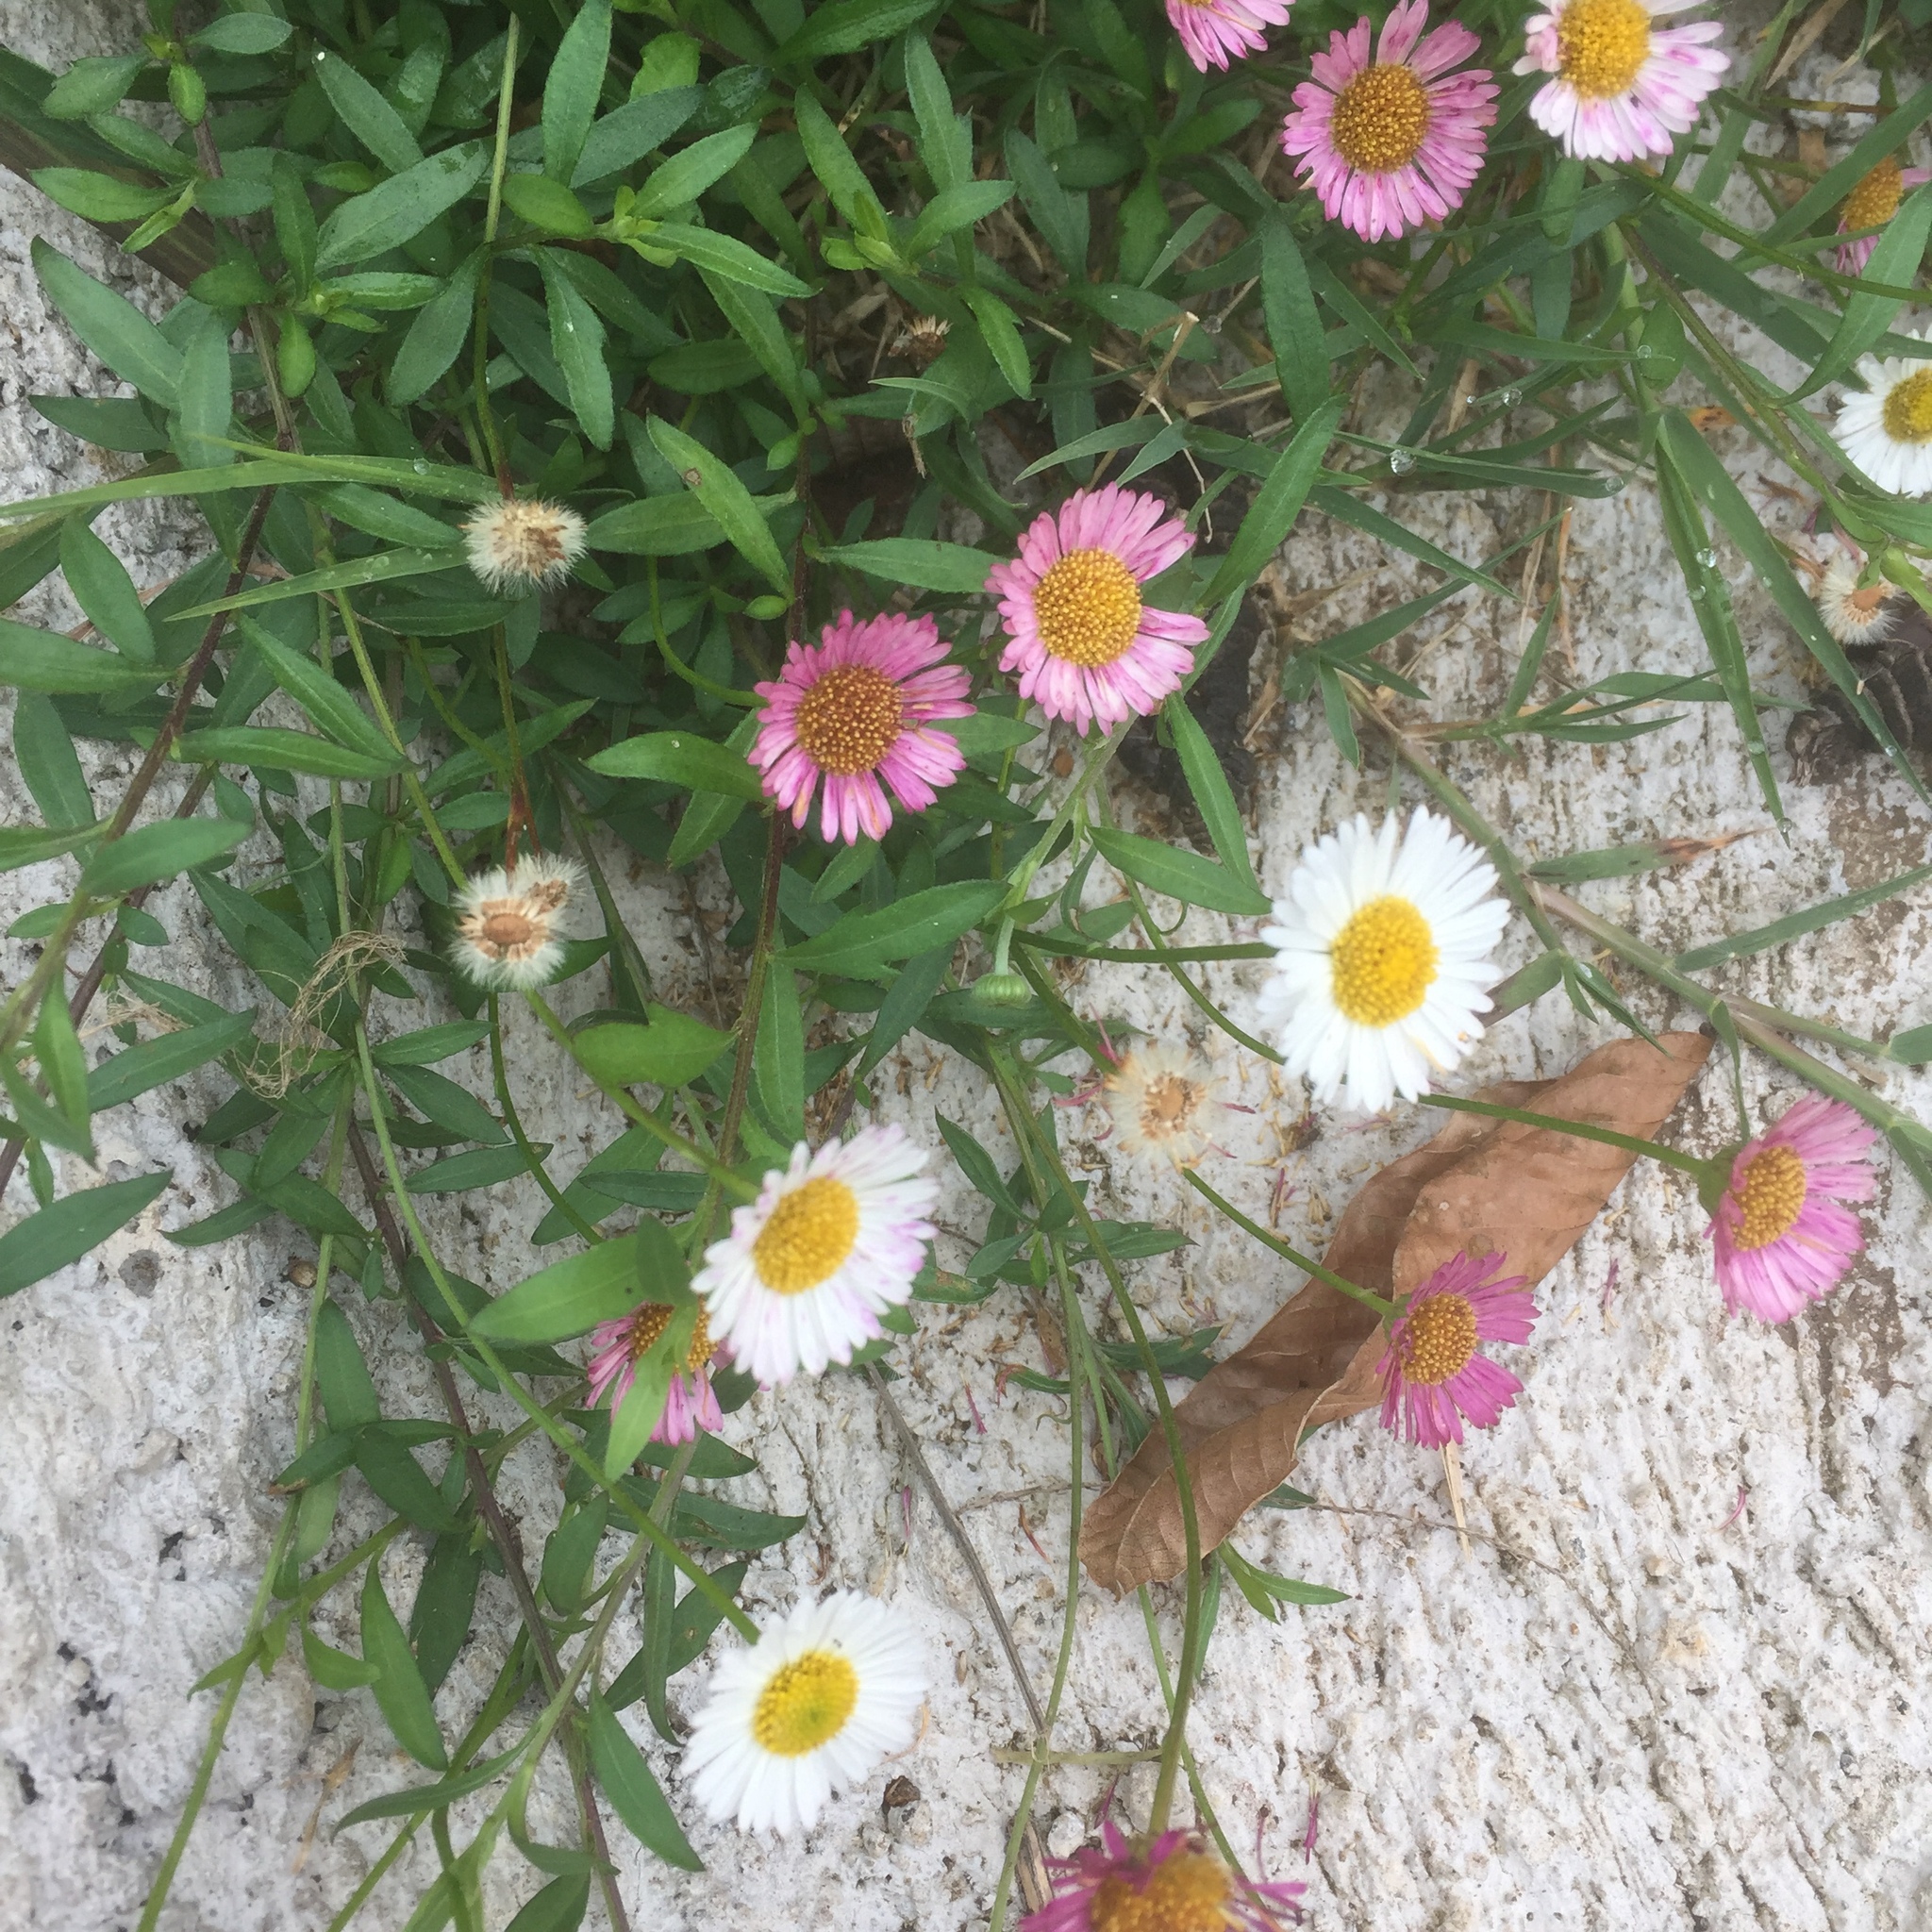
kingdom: Plantae
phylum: Tracheophyta
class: Magnoliopsida
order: Asterales
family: Asteraceae
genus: Erigeron
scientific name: Erigeron karvinskianus
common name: Mexican fleabane
